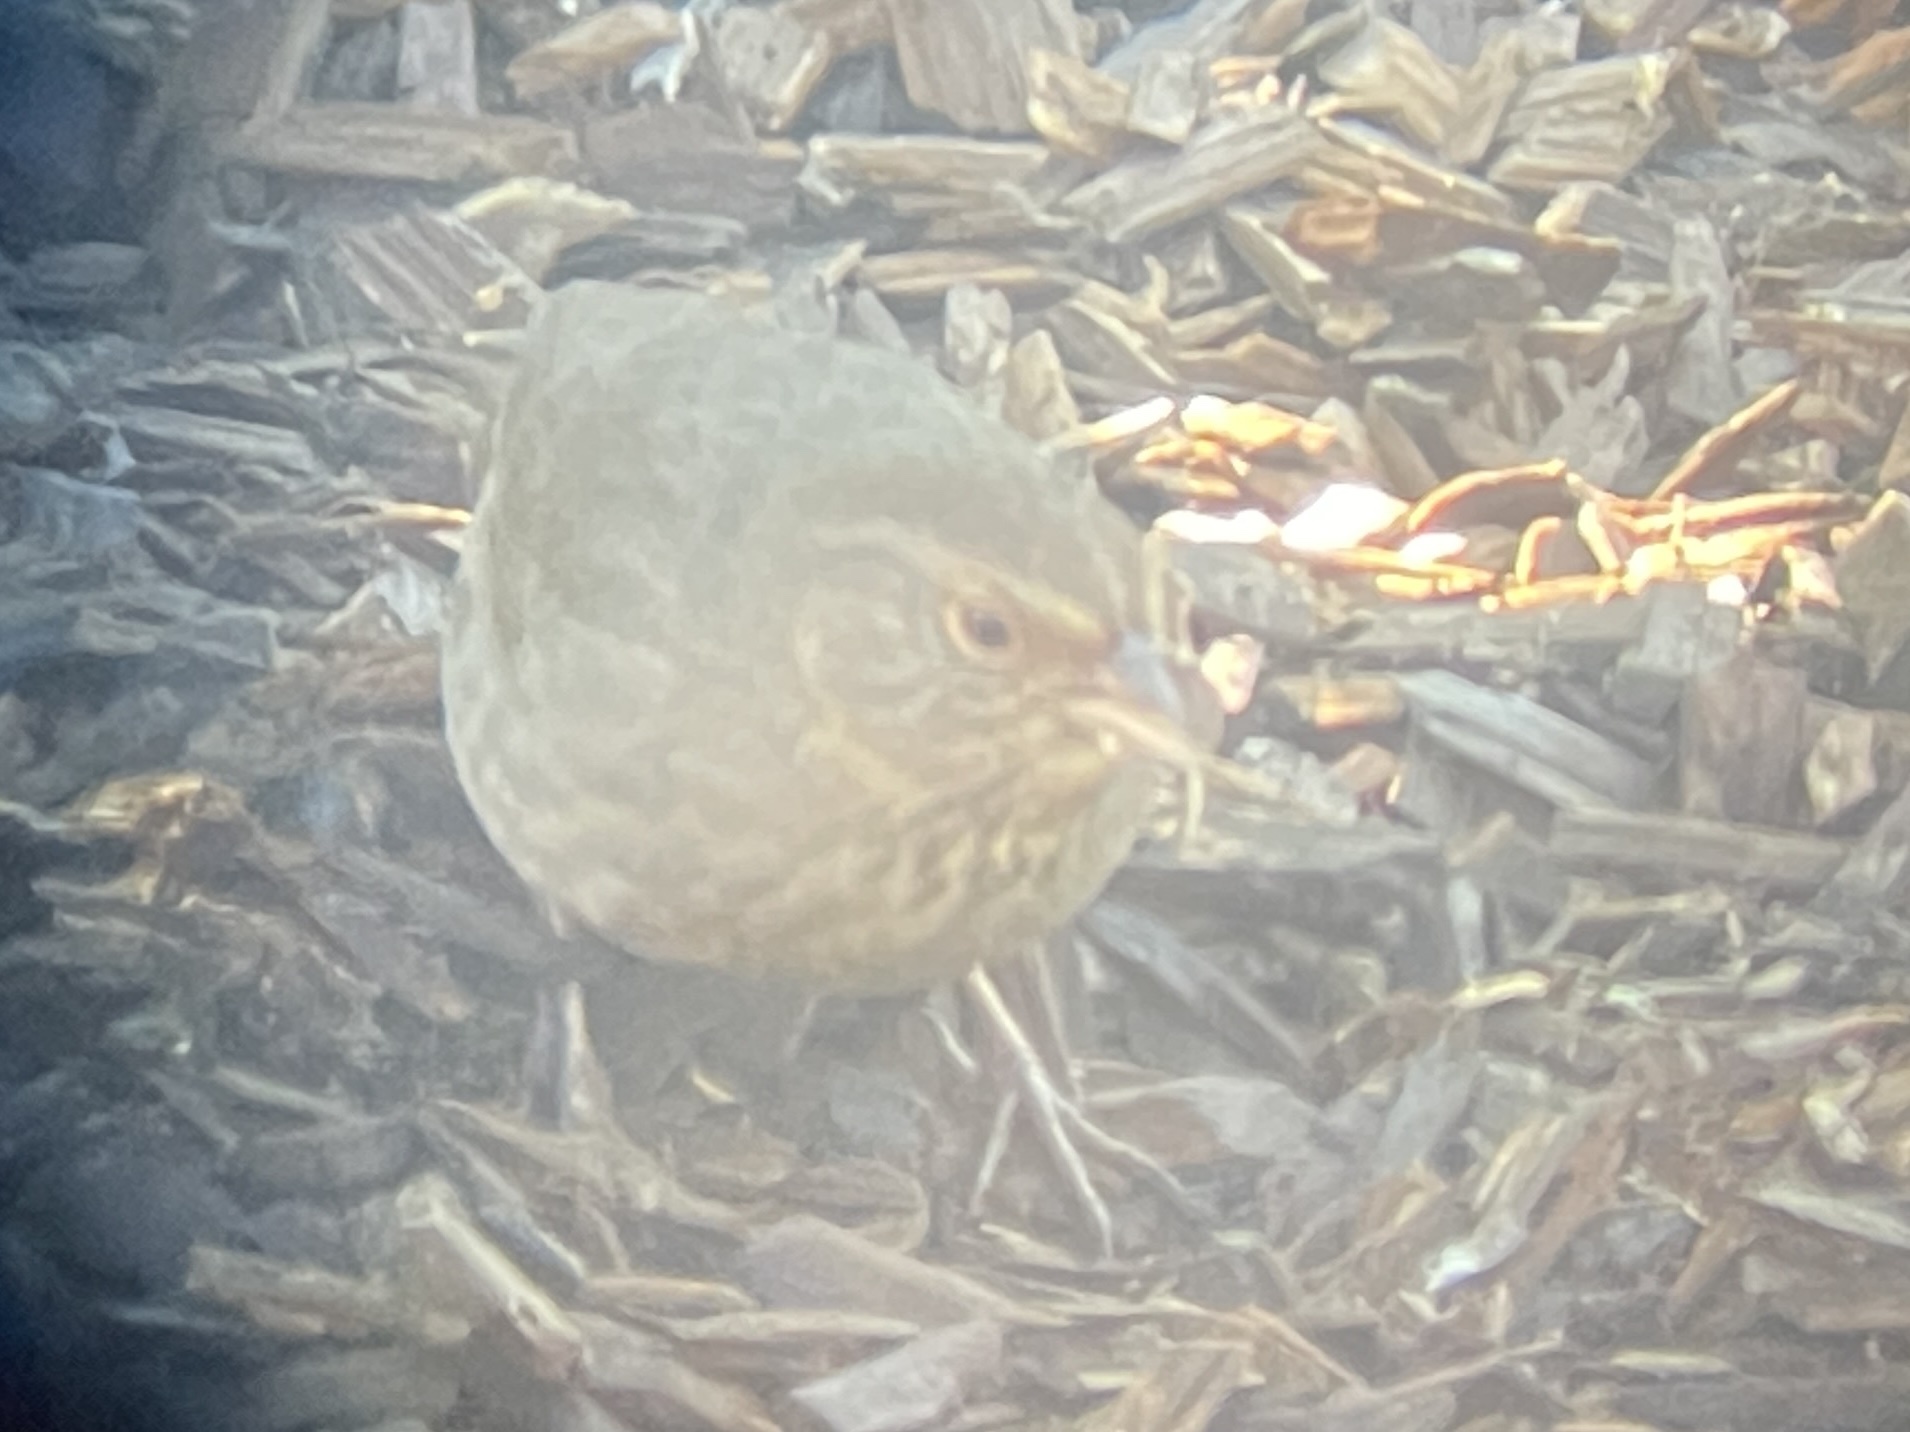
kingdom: Animalia
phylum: Chordata
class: Aves
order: Passeriformes
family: Passerellidae
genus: Melozone
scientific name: Melozone crissalis
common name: California towhee
